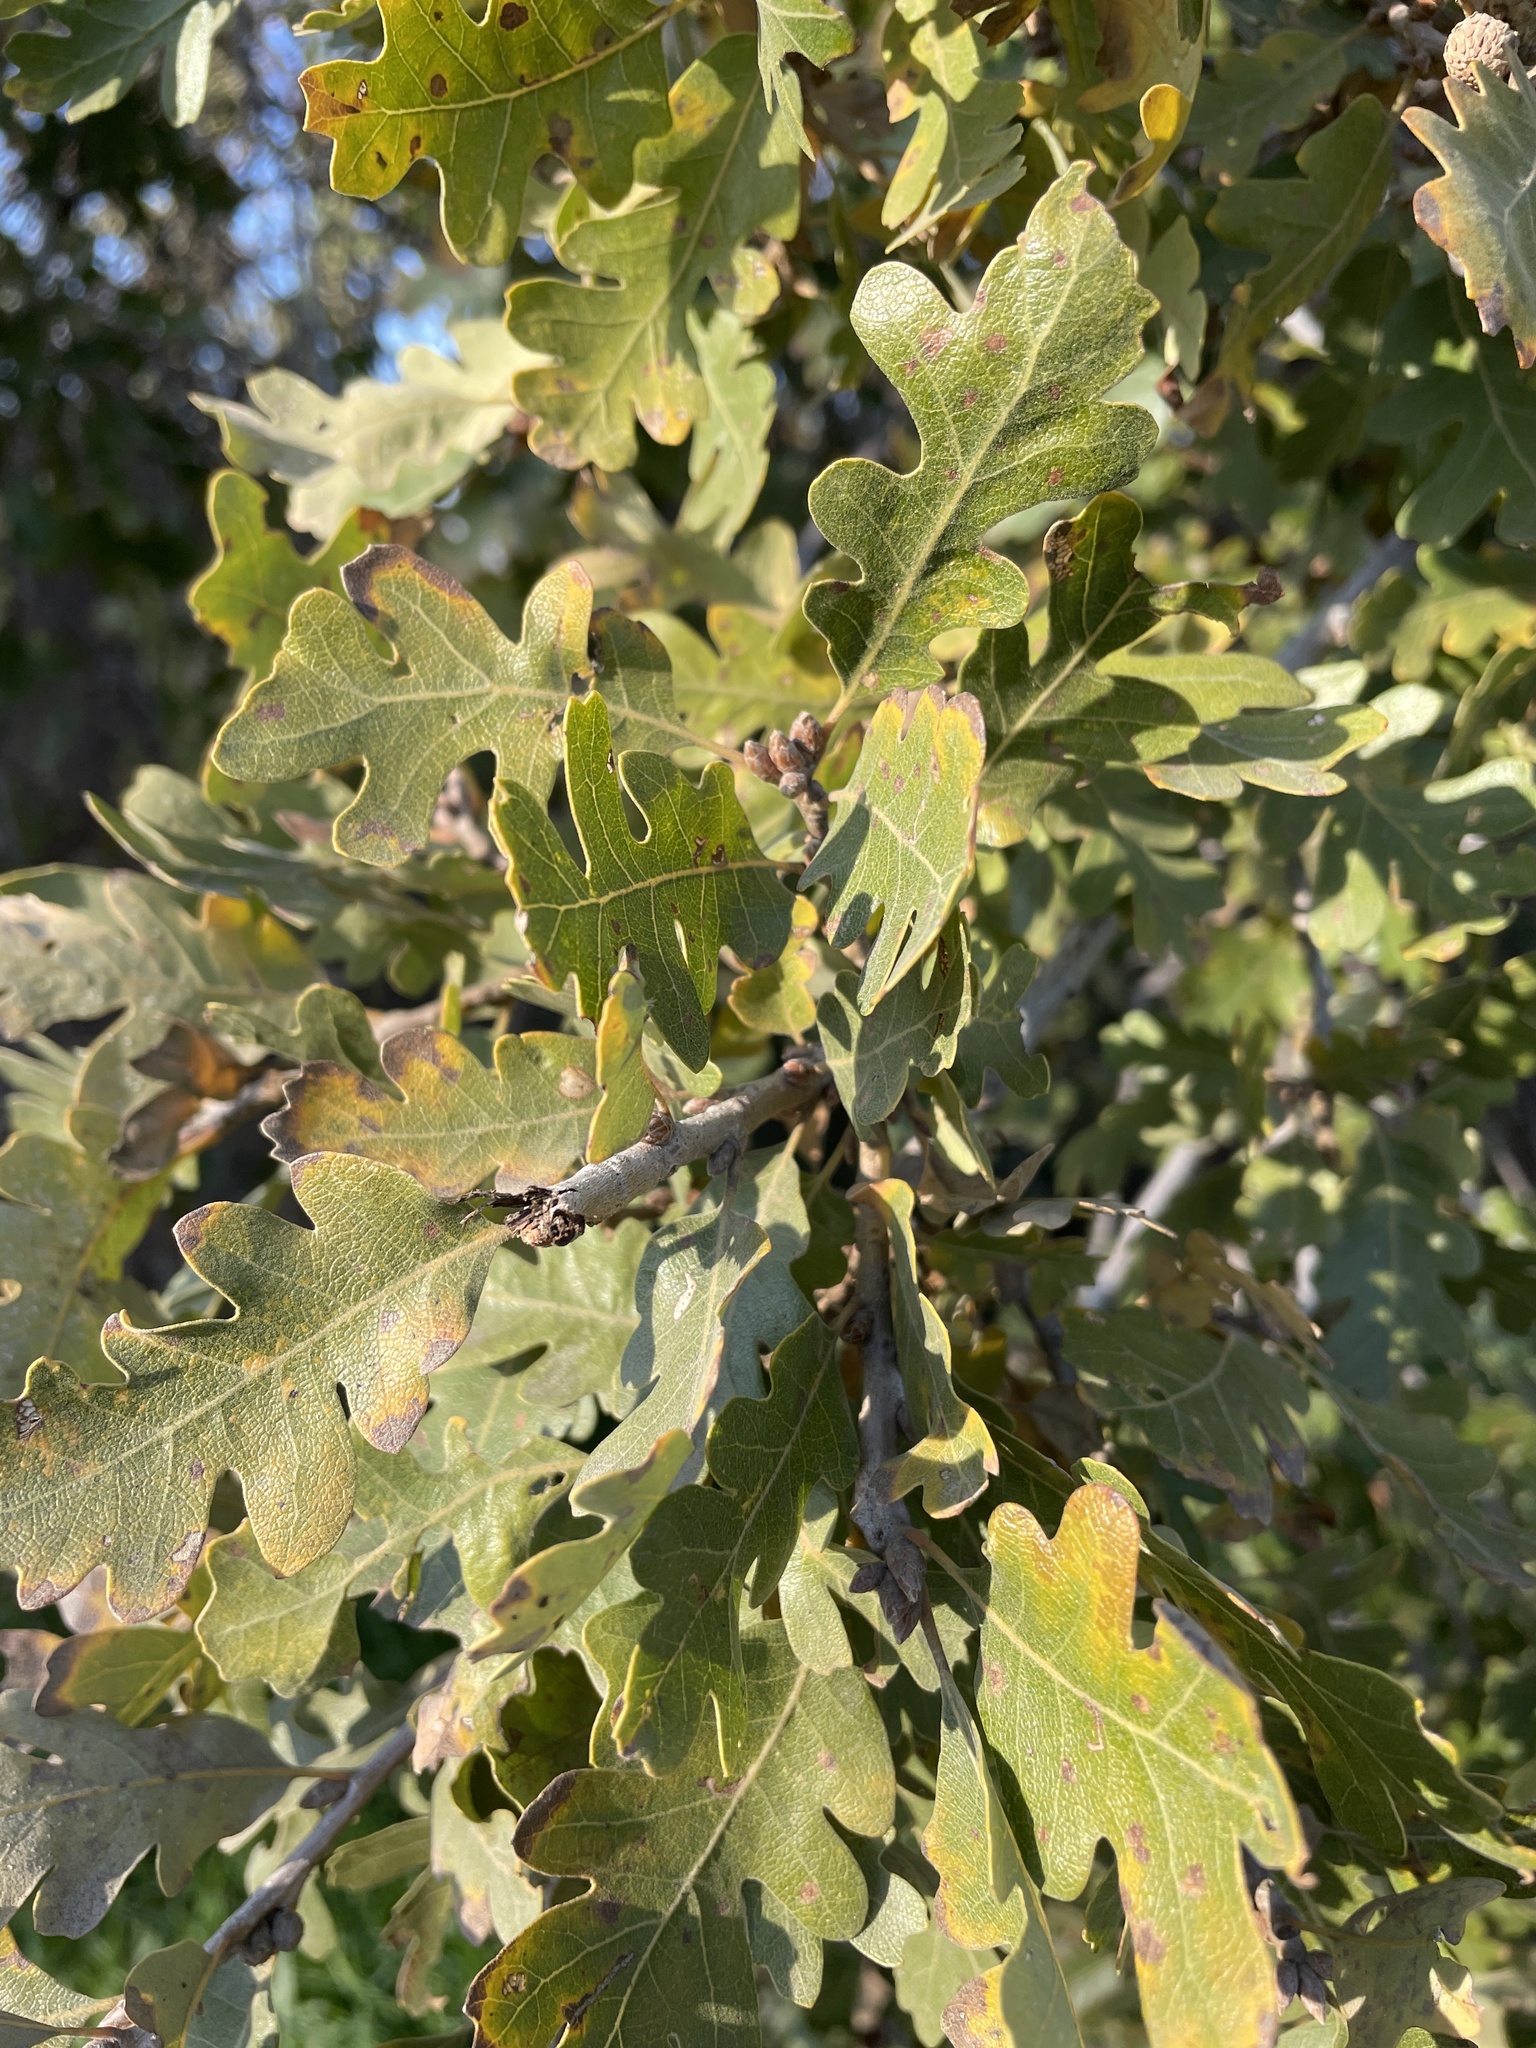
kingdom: Plantae
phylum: Tracheophyta
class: Magnoliopsida
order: Fagales
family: Fagaceae
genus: Quercus
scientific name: Quercus lobata
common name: Valley oak
